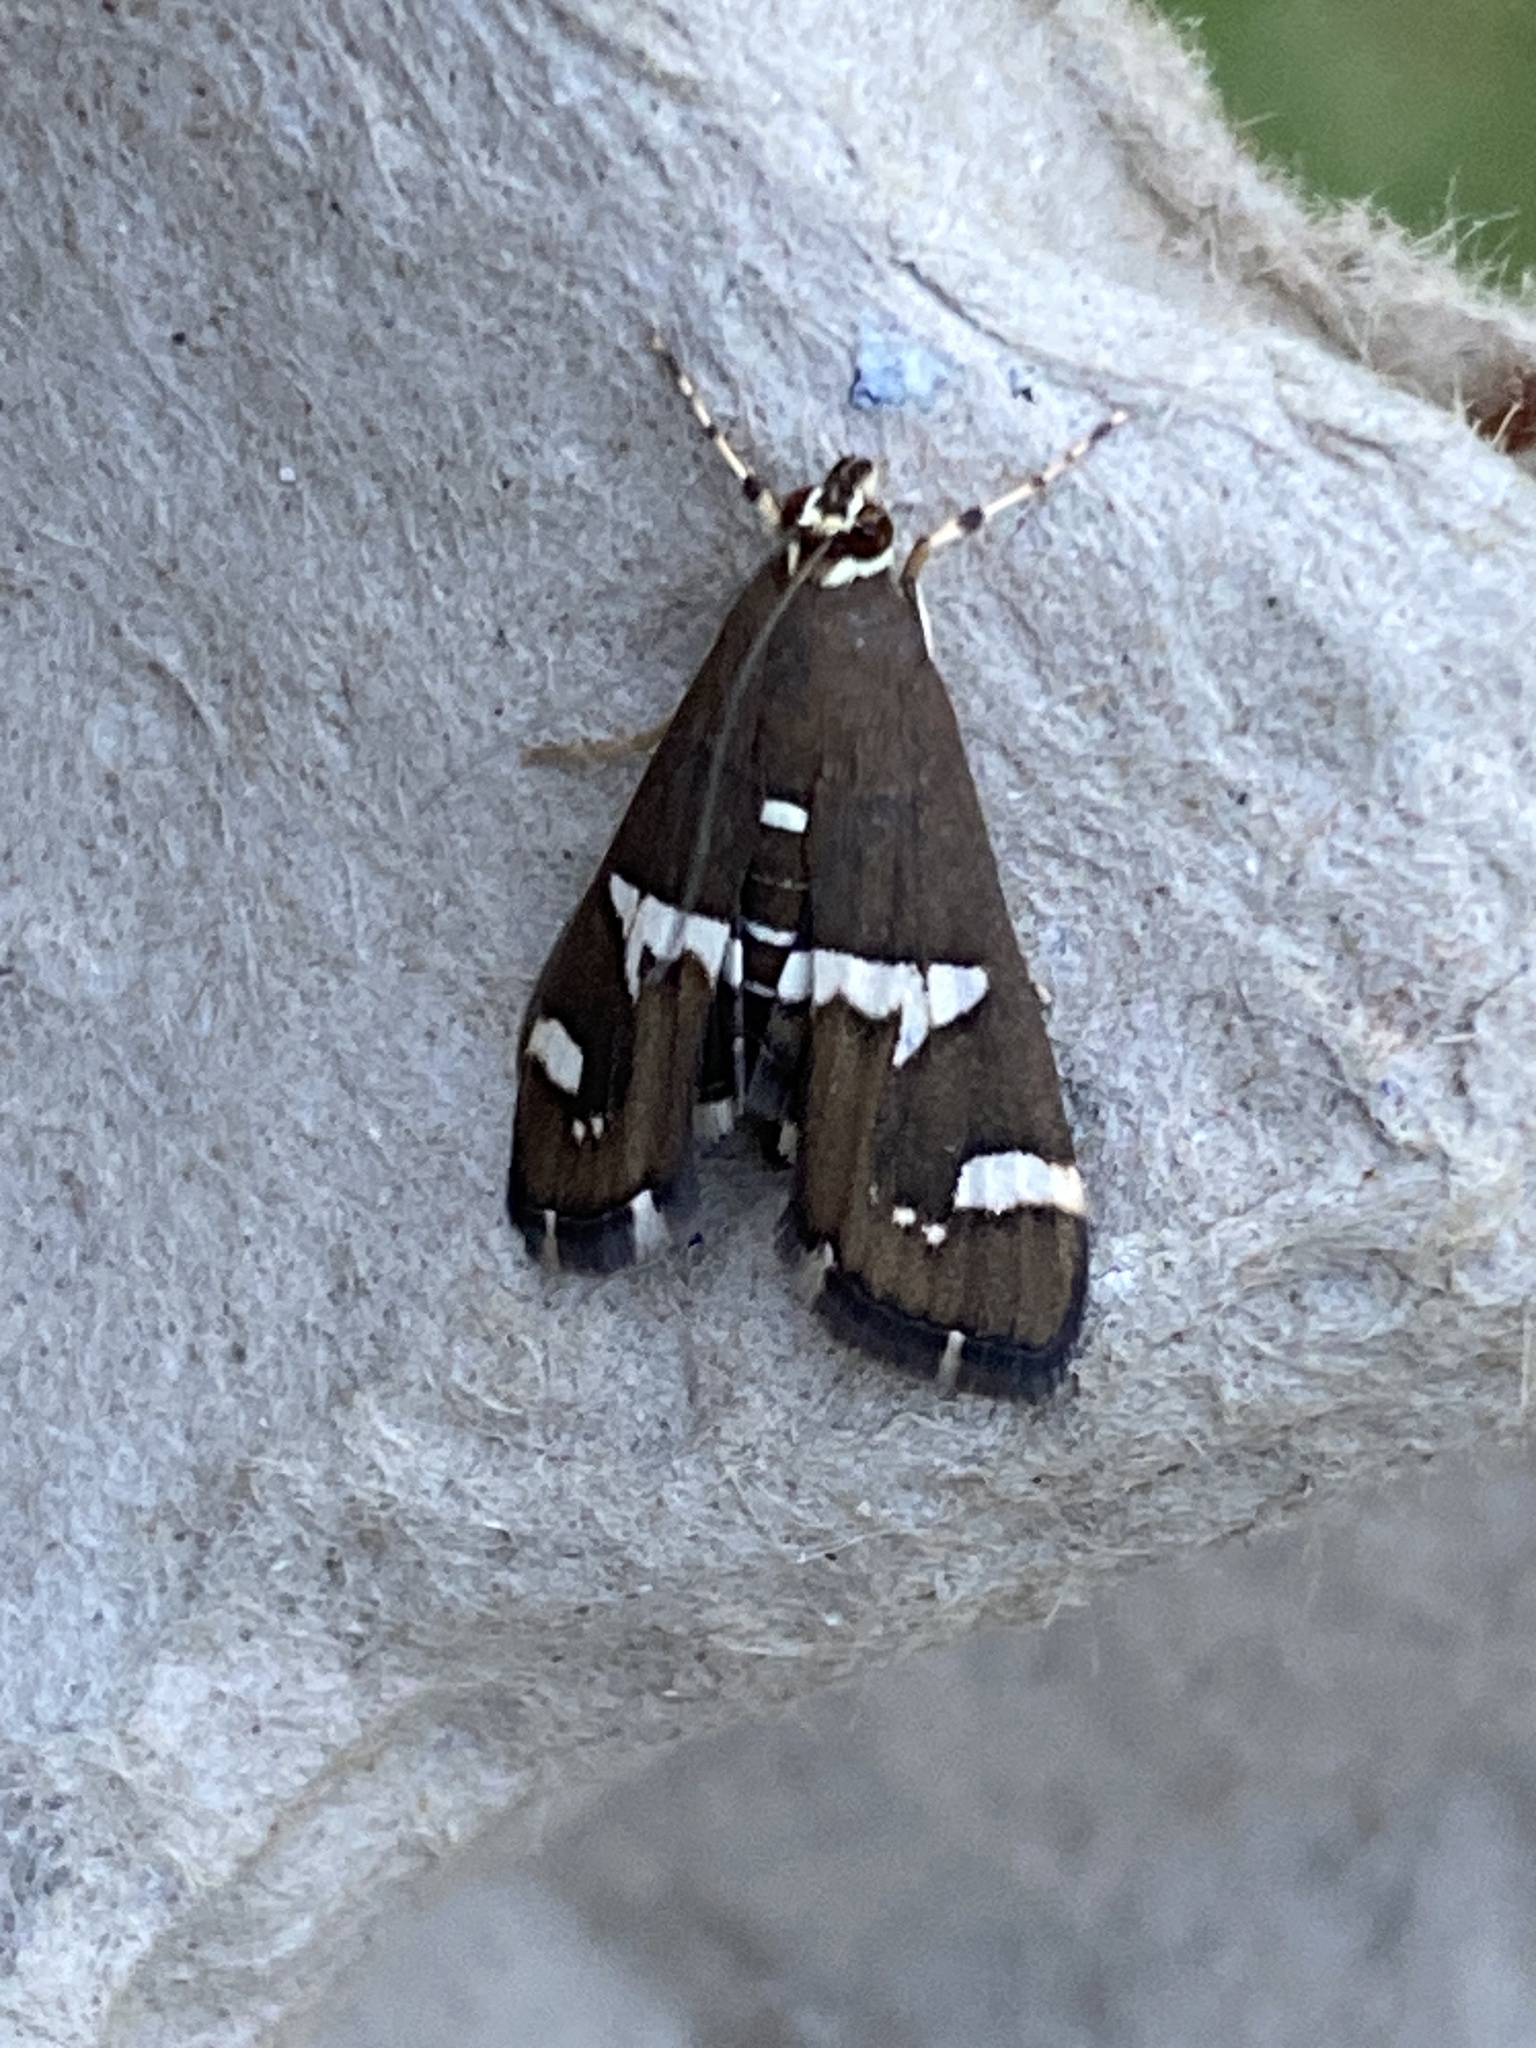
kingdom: Animalia
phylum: Arthropoda
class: Insecta
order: Lepidoptera
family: Crambidae
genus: Spoladea
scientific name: Spoladea recurvalis
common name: Beet webworm moth
